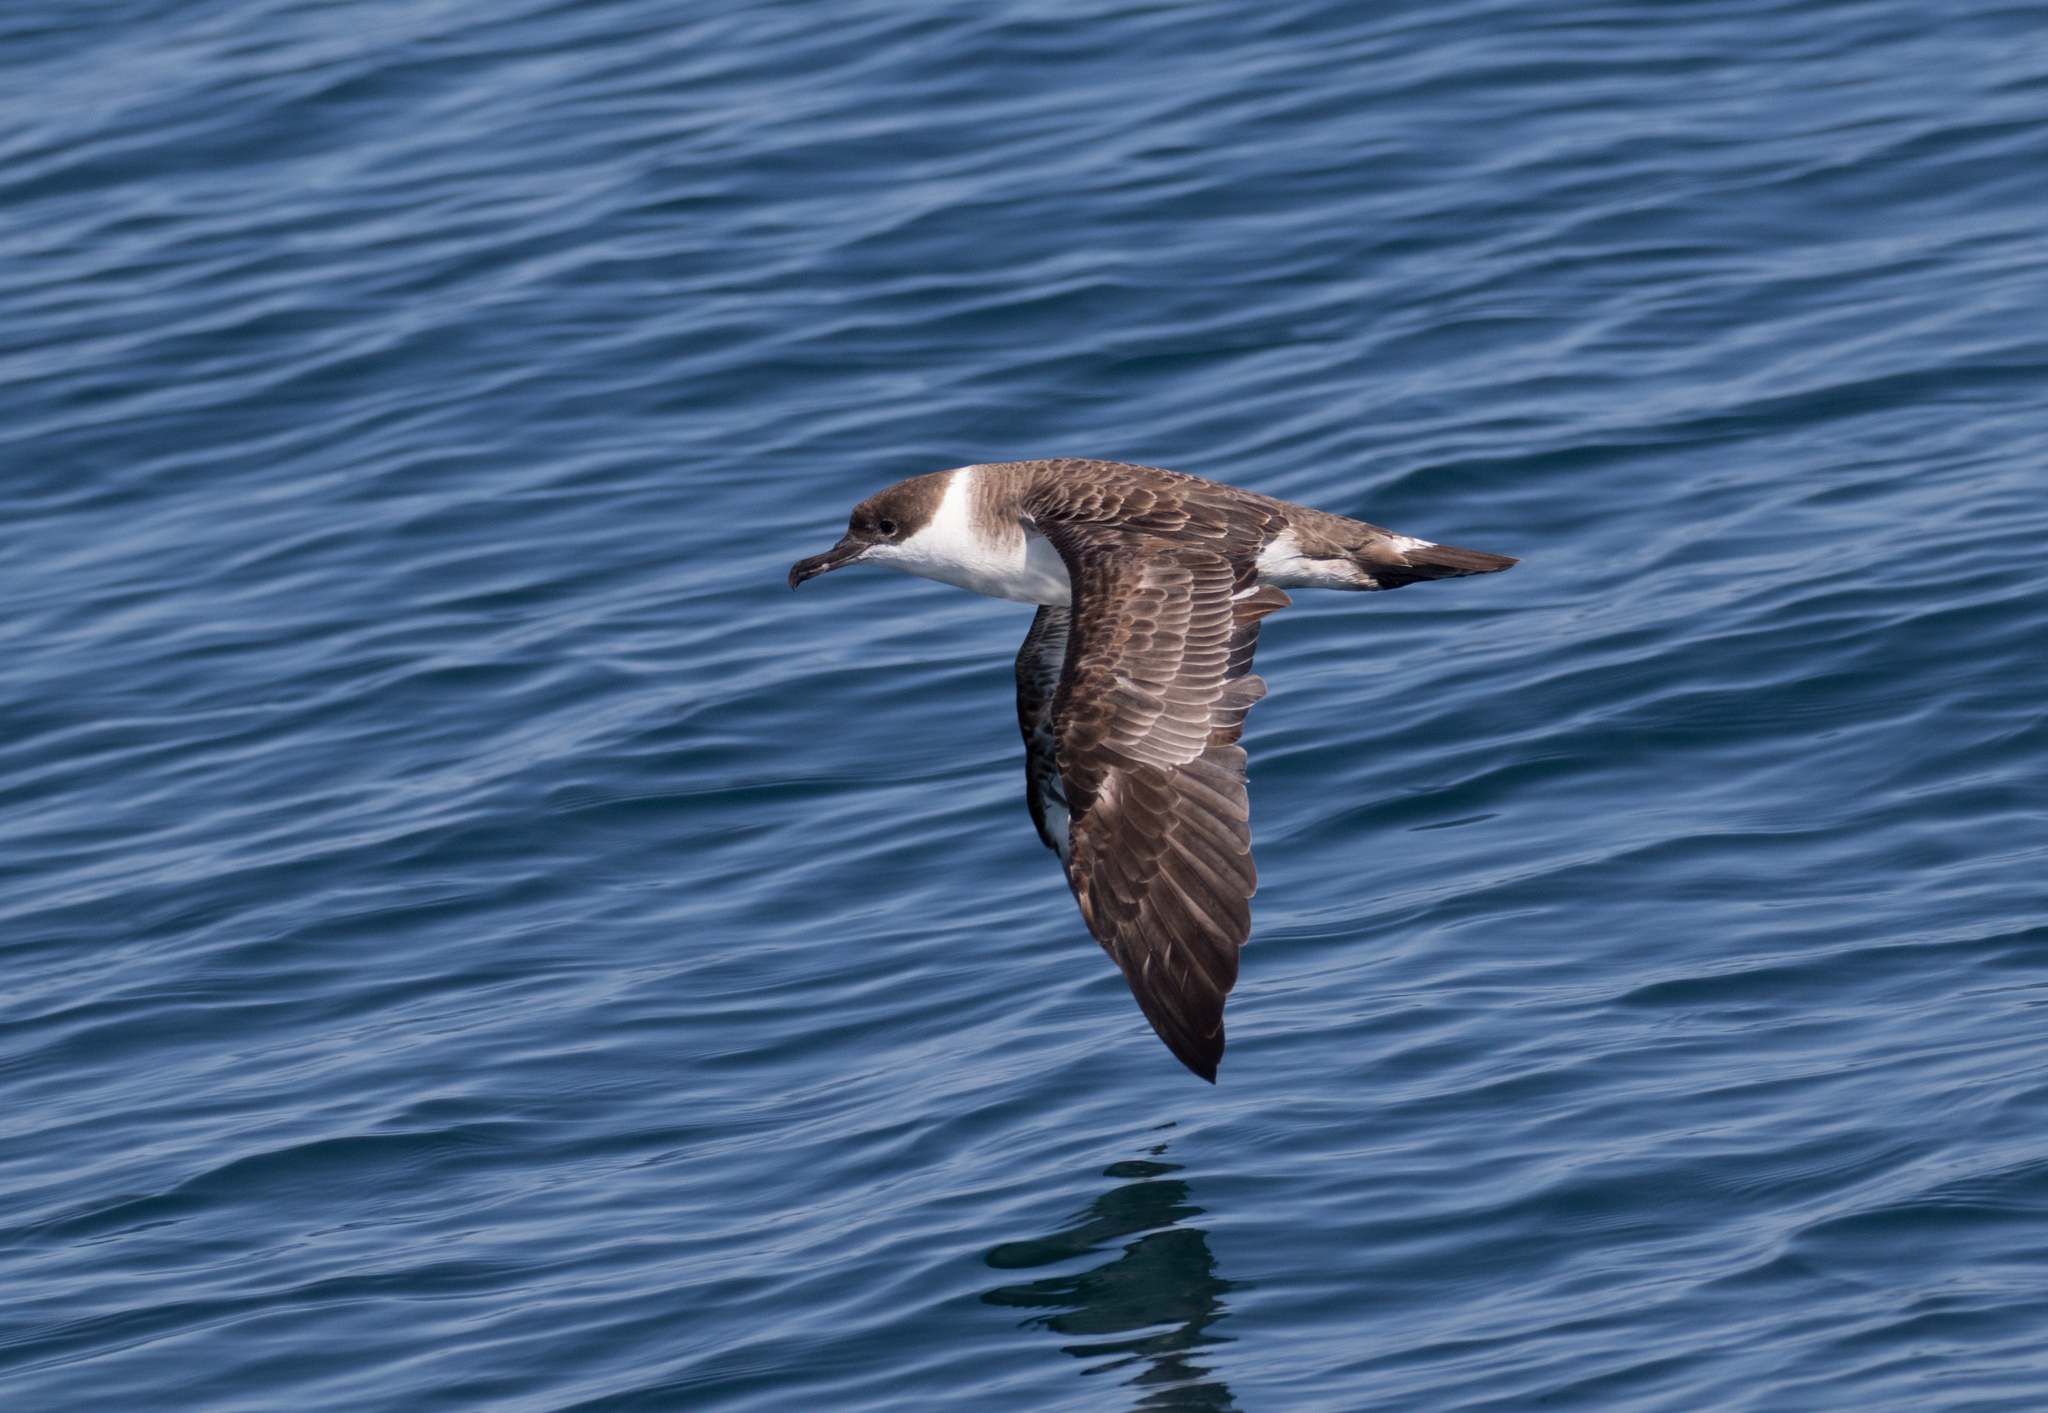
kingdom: Animalia
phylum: Chordata
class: Aves
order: Procellariiformes
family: Procellariidae
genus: Puffinus
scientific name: Puffinus gravis
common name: Great shearwater
